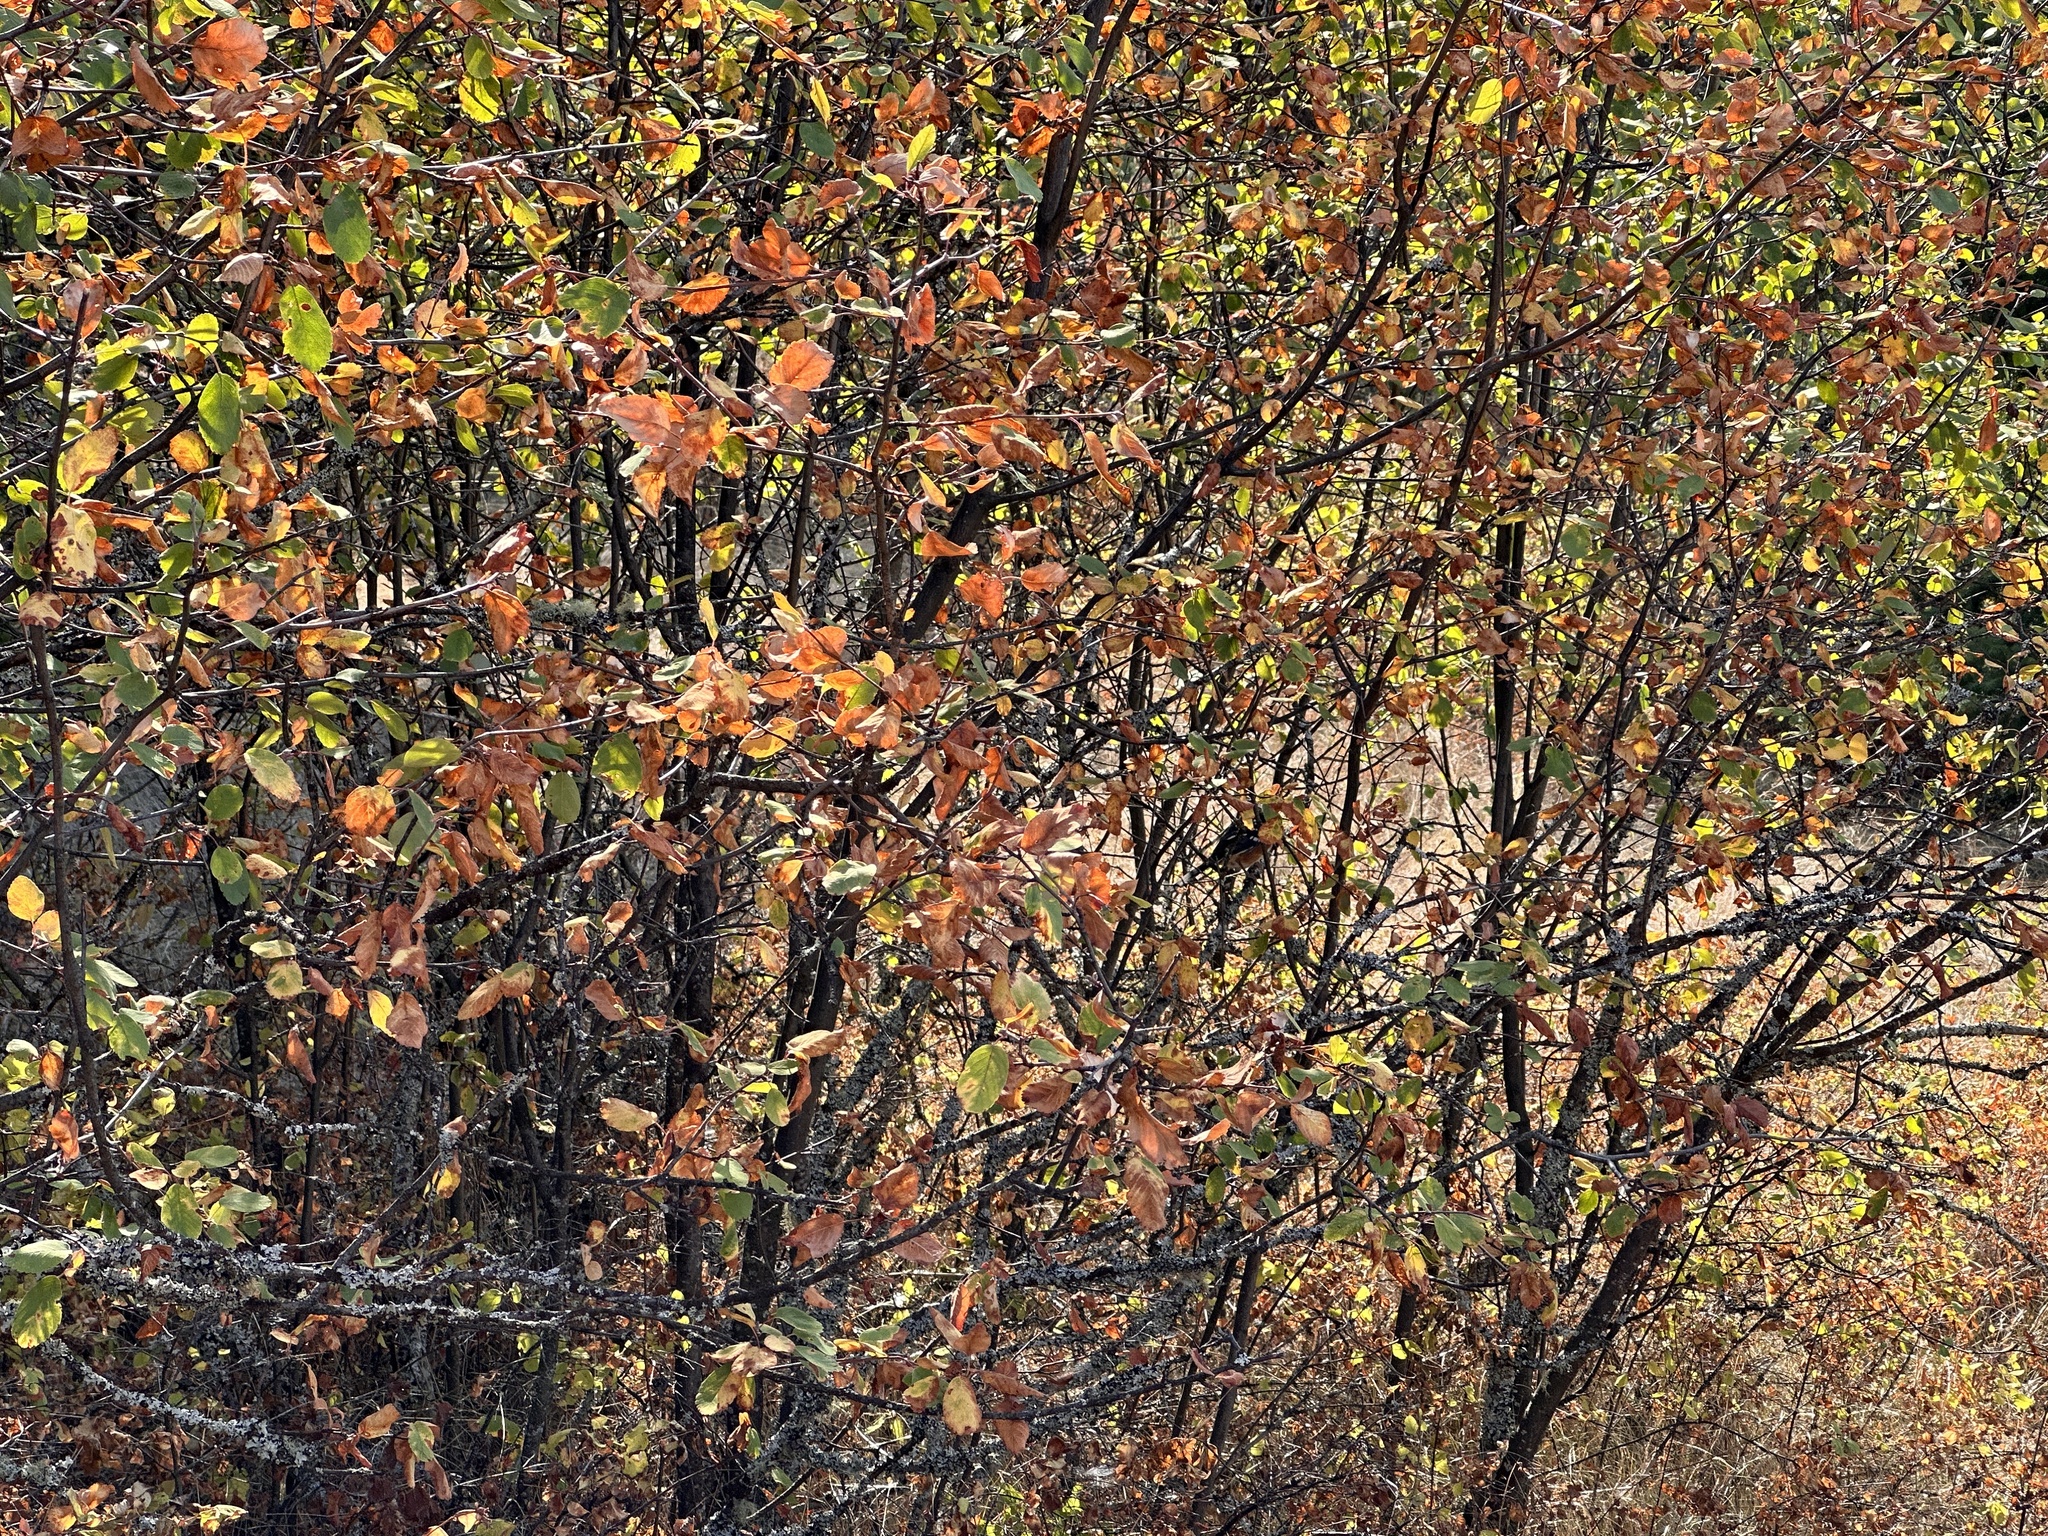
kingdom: Animalia
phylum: Chordata
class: Aves
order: Passeriformes
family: Passerellidae
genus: Pipilo
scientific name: Pipilo maculatus
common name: Spotted towhee
